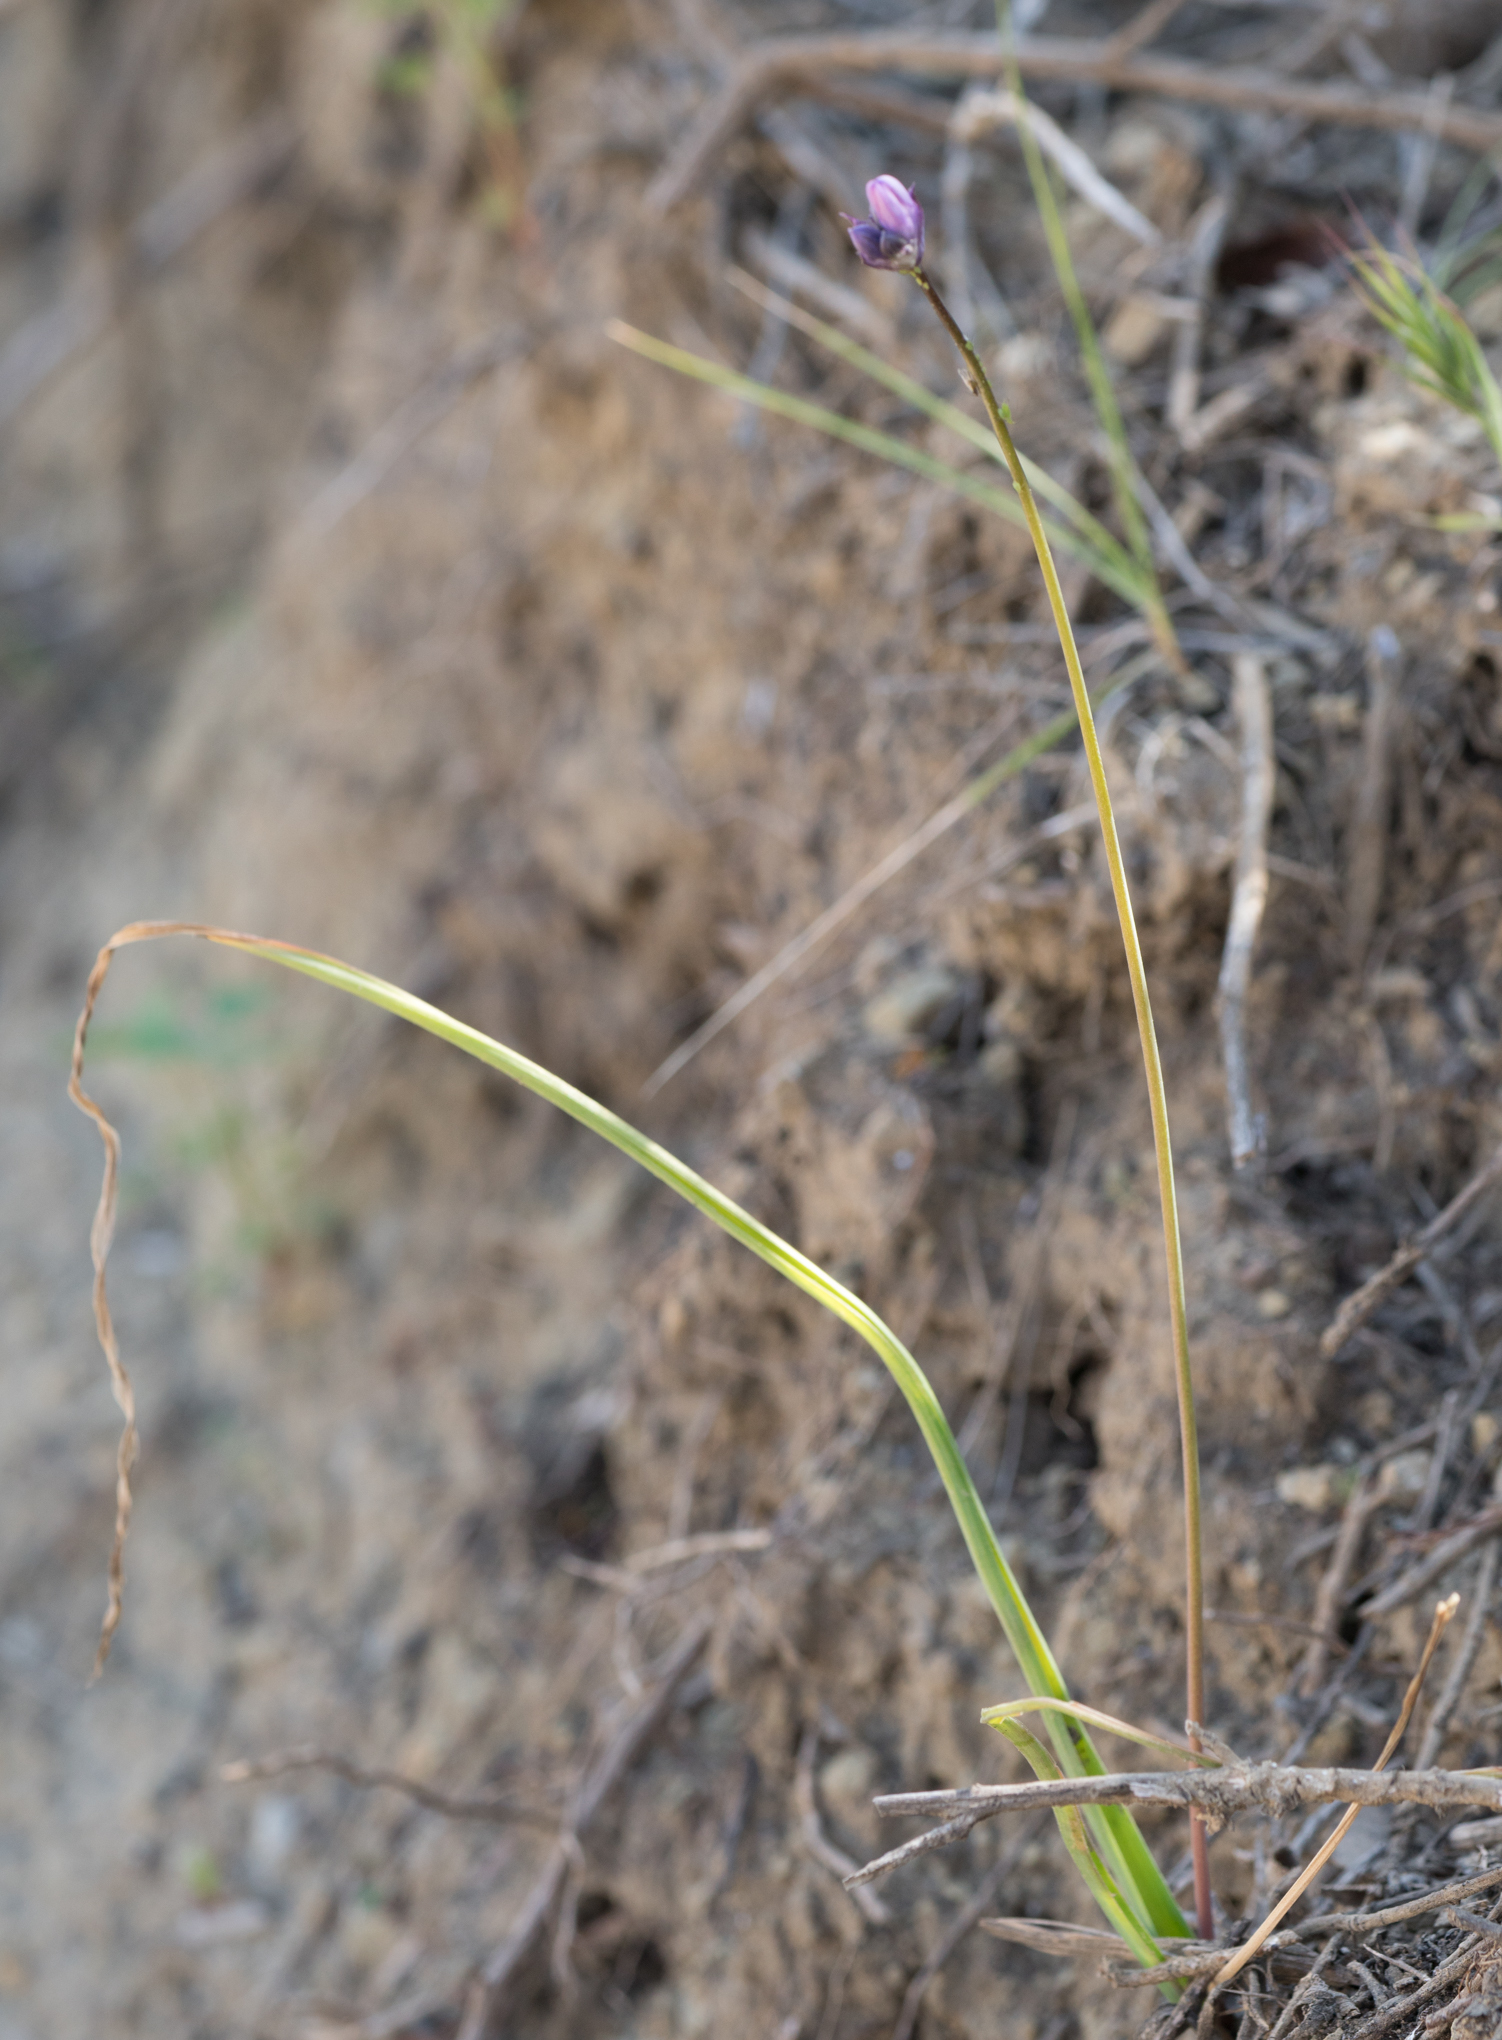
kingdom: Plantae
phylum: Tracheophyta
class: Liliopsida
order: Asparagales
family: Asparagaceae
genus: Dipterostemon
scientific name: Dipterostemon capitatus
